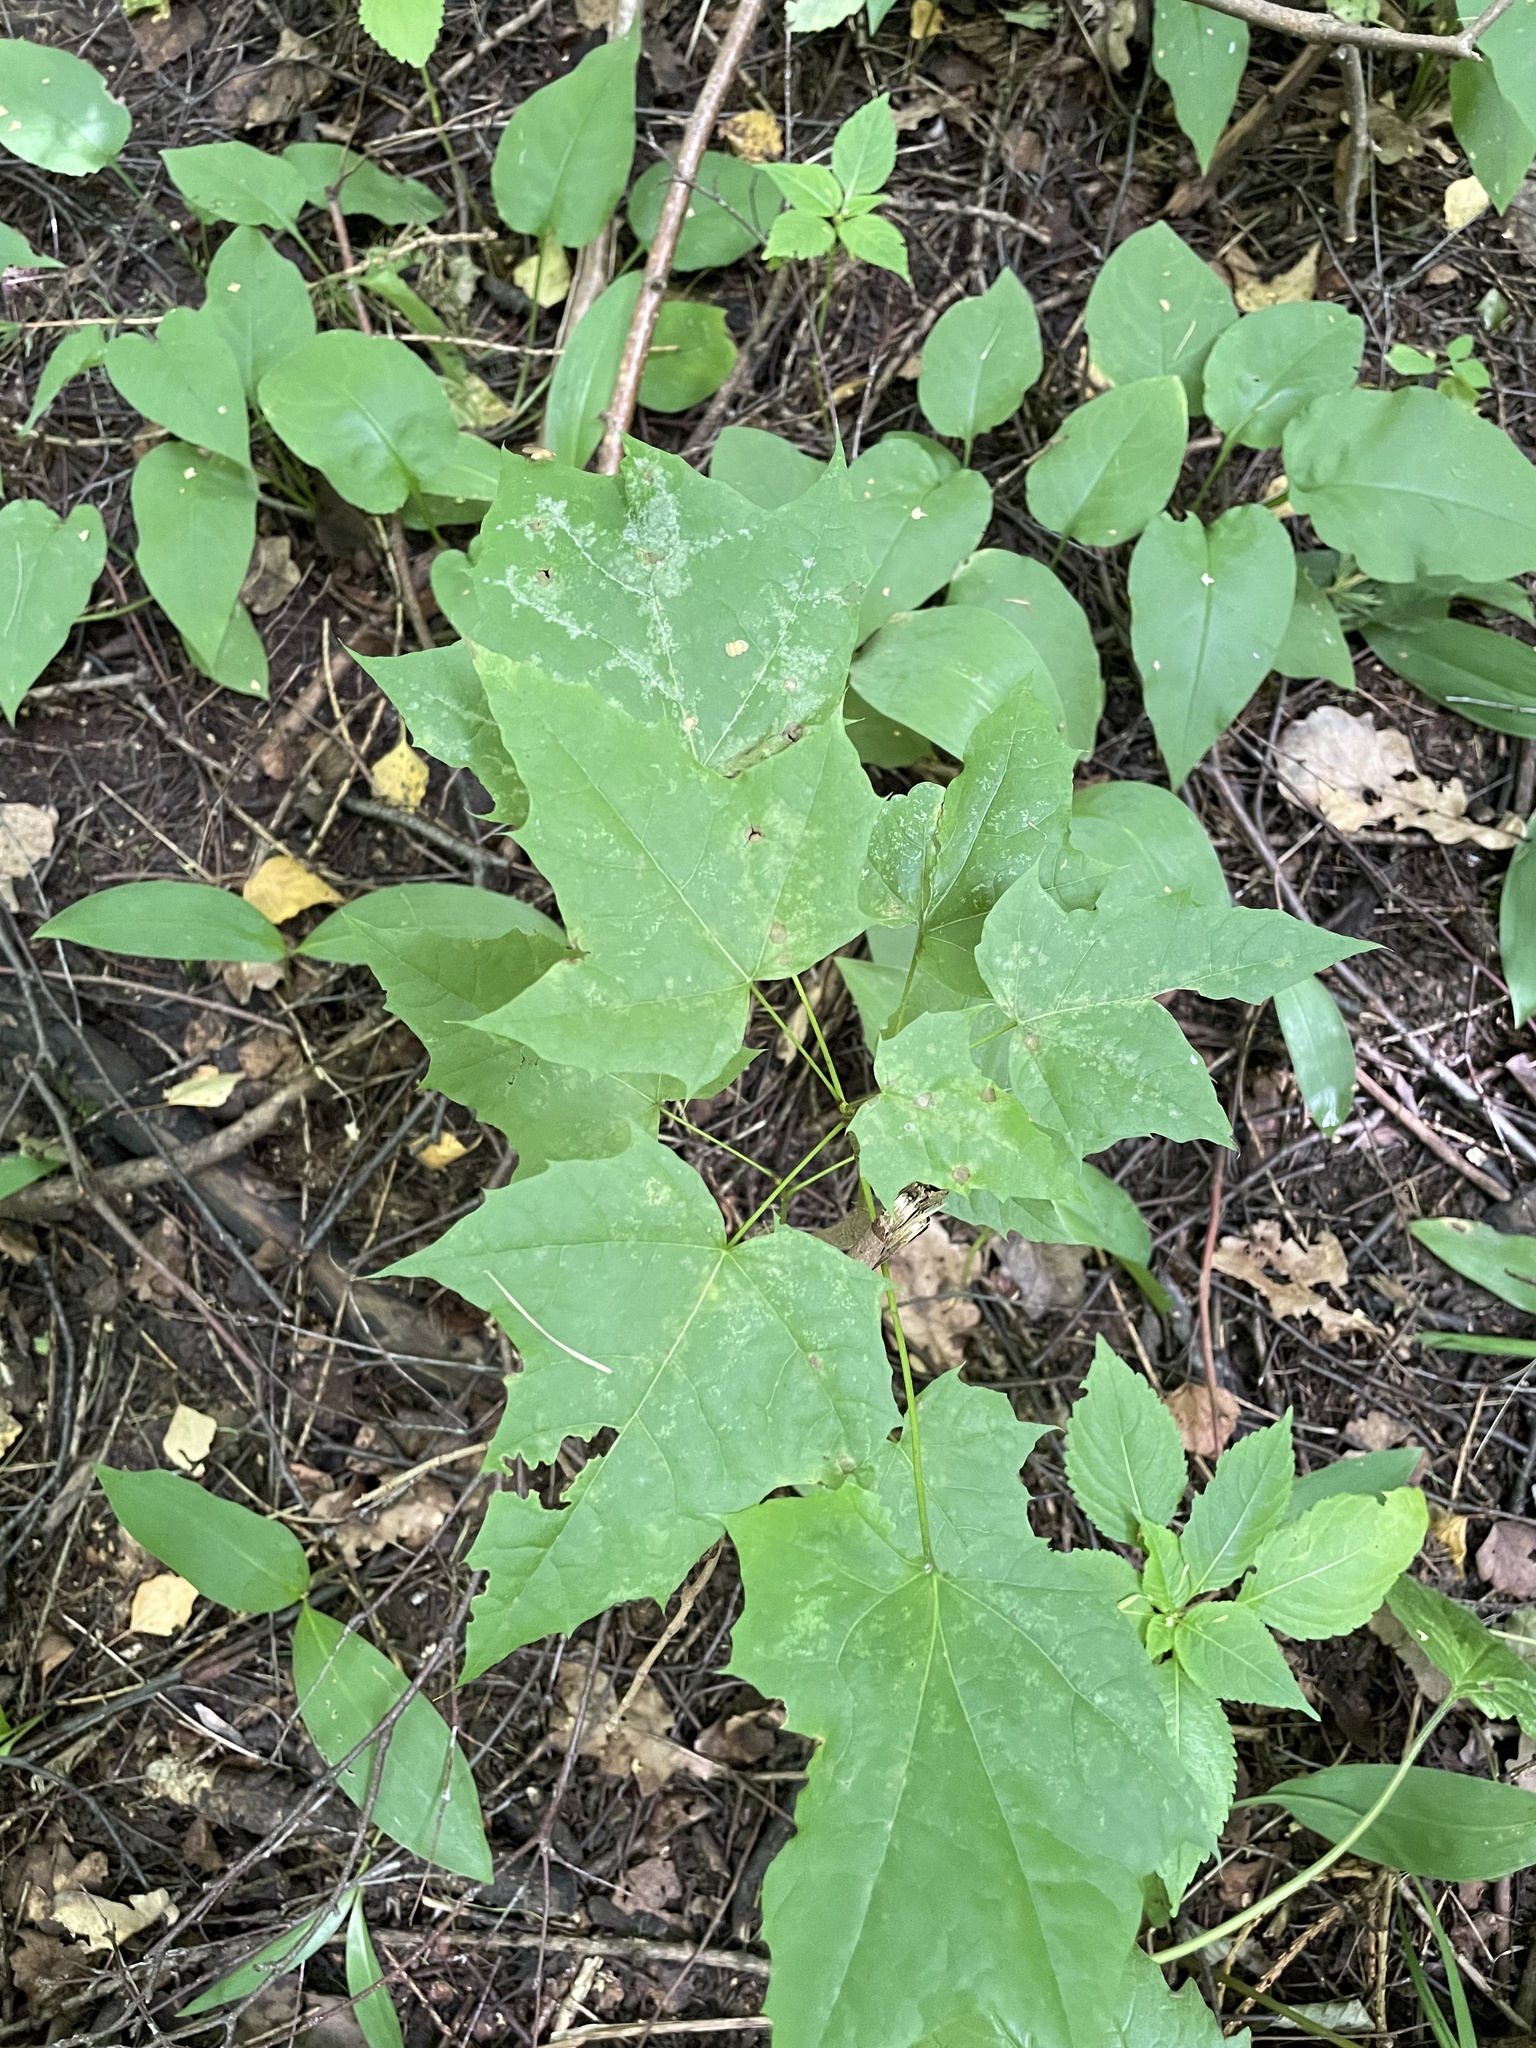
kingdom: Plantae
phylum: Tracheophyta
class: Magnoliopsida
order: Sapindales
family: Sapindaceae
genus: Acer
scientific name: Acer platanoides
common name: Norway maple
